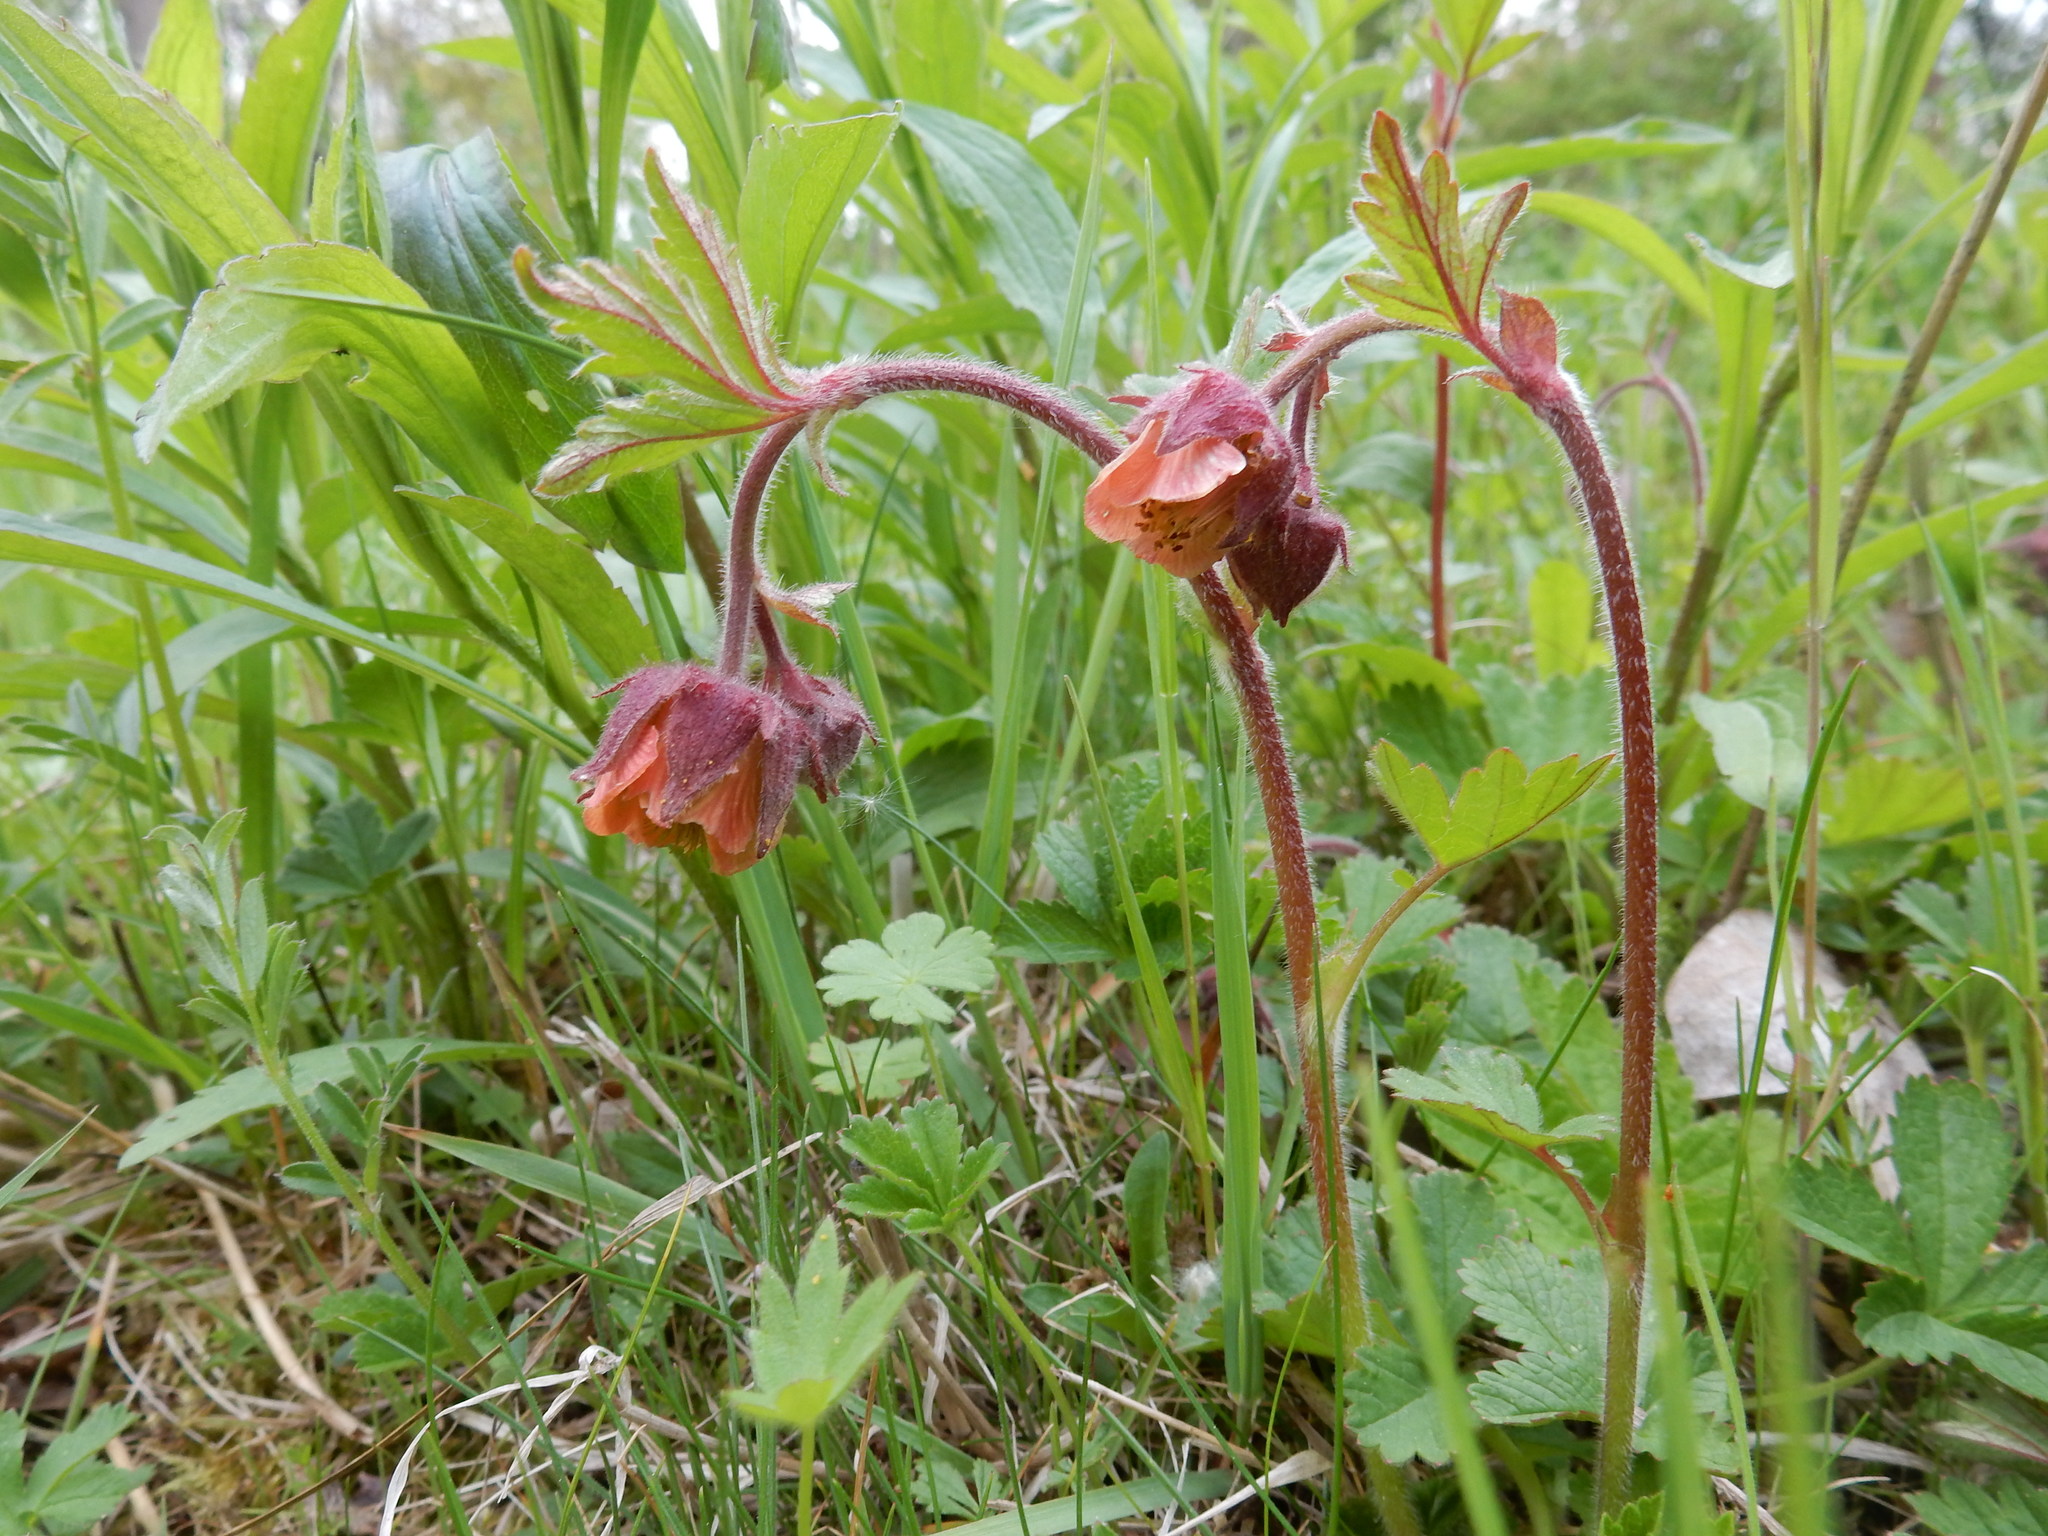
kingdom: Plantae
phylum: Tracheophyta
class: Magnoliopsida
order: Rosales
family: Rosaceae
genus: Geum
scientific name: Geum rivale
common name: Water avens
